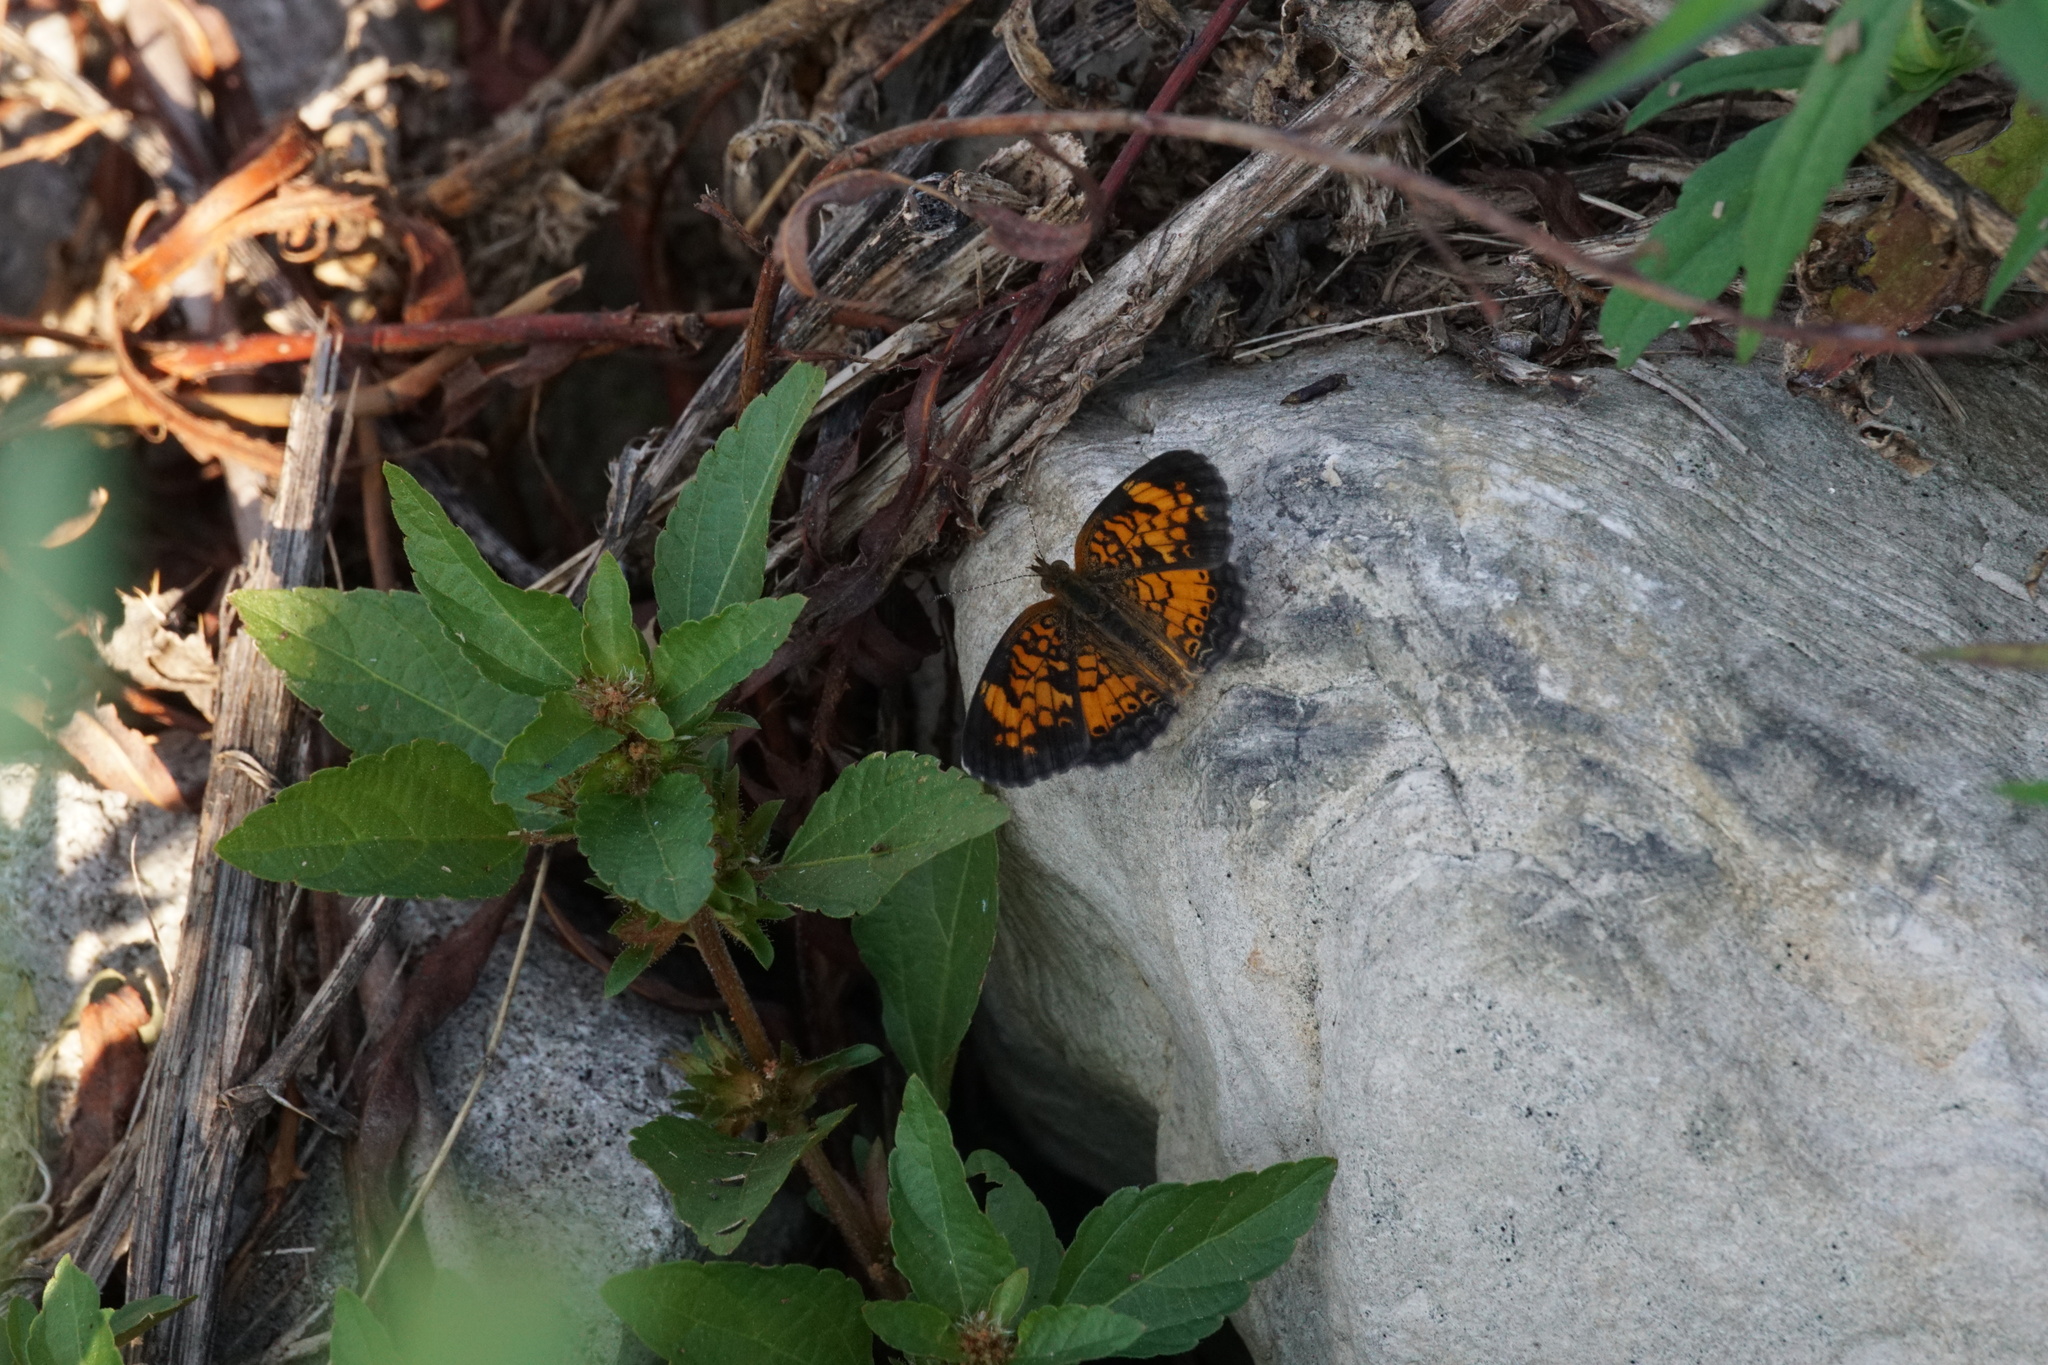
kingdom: Animalia
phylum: Arthropoda
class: Insecta
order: Lepidoptera
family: Nymphalidae
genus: Phyciodes
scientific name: Phyciodes tharos
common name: Pearl crescent
